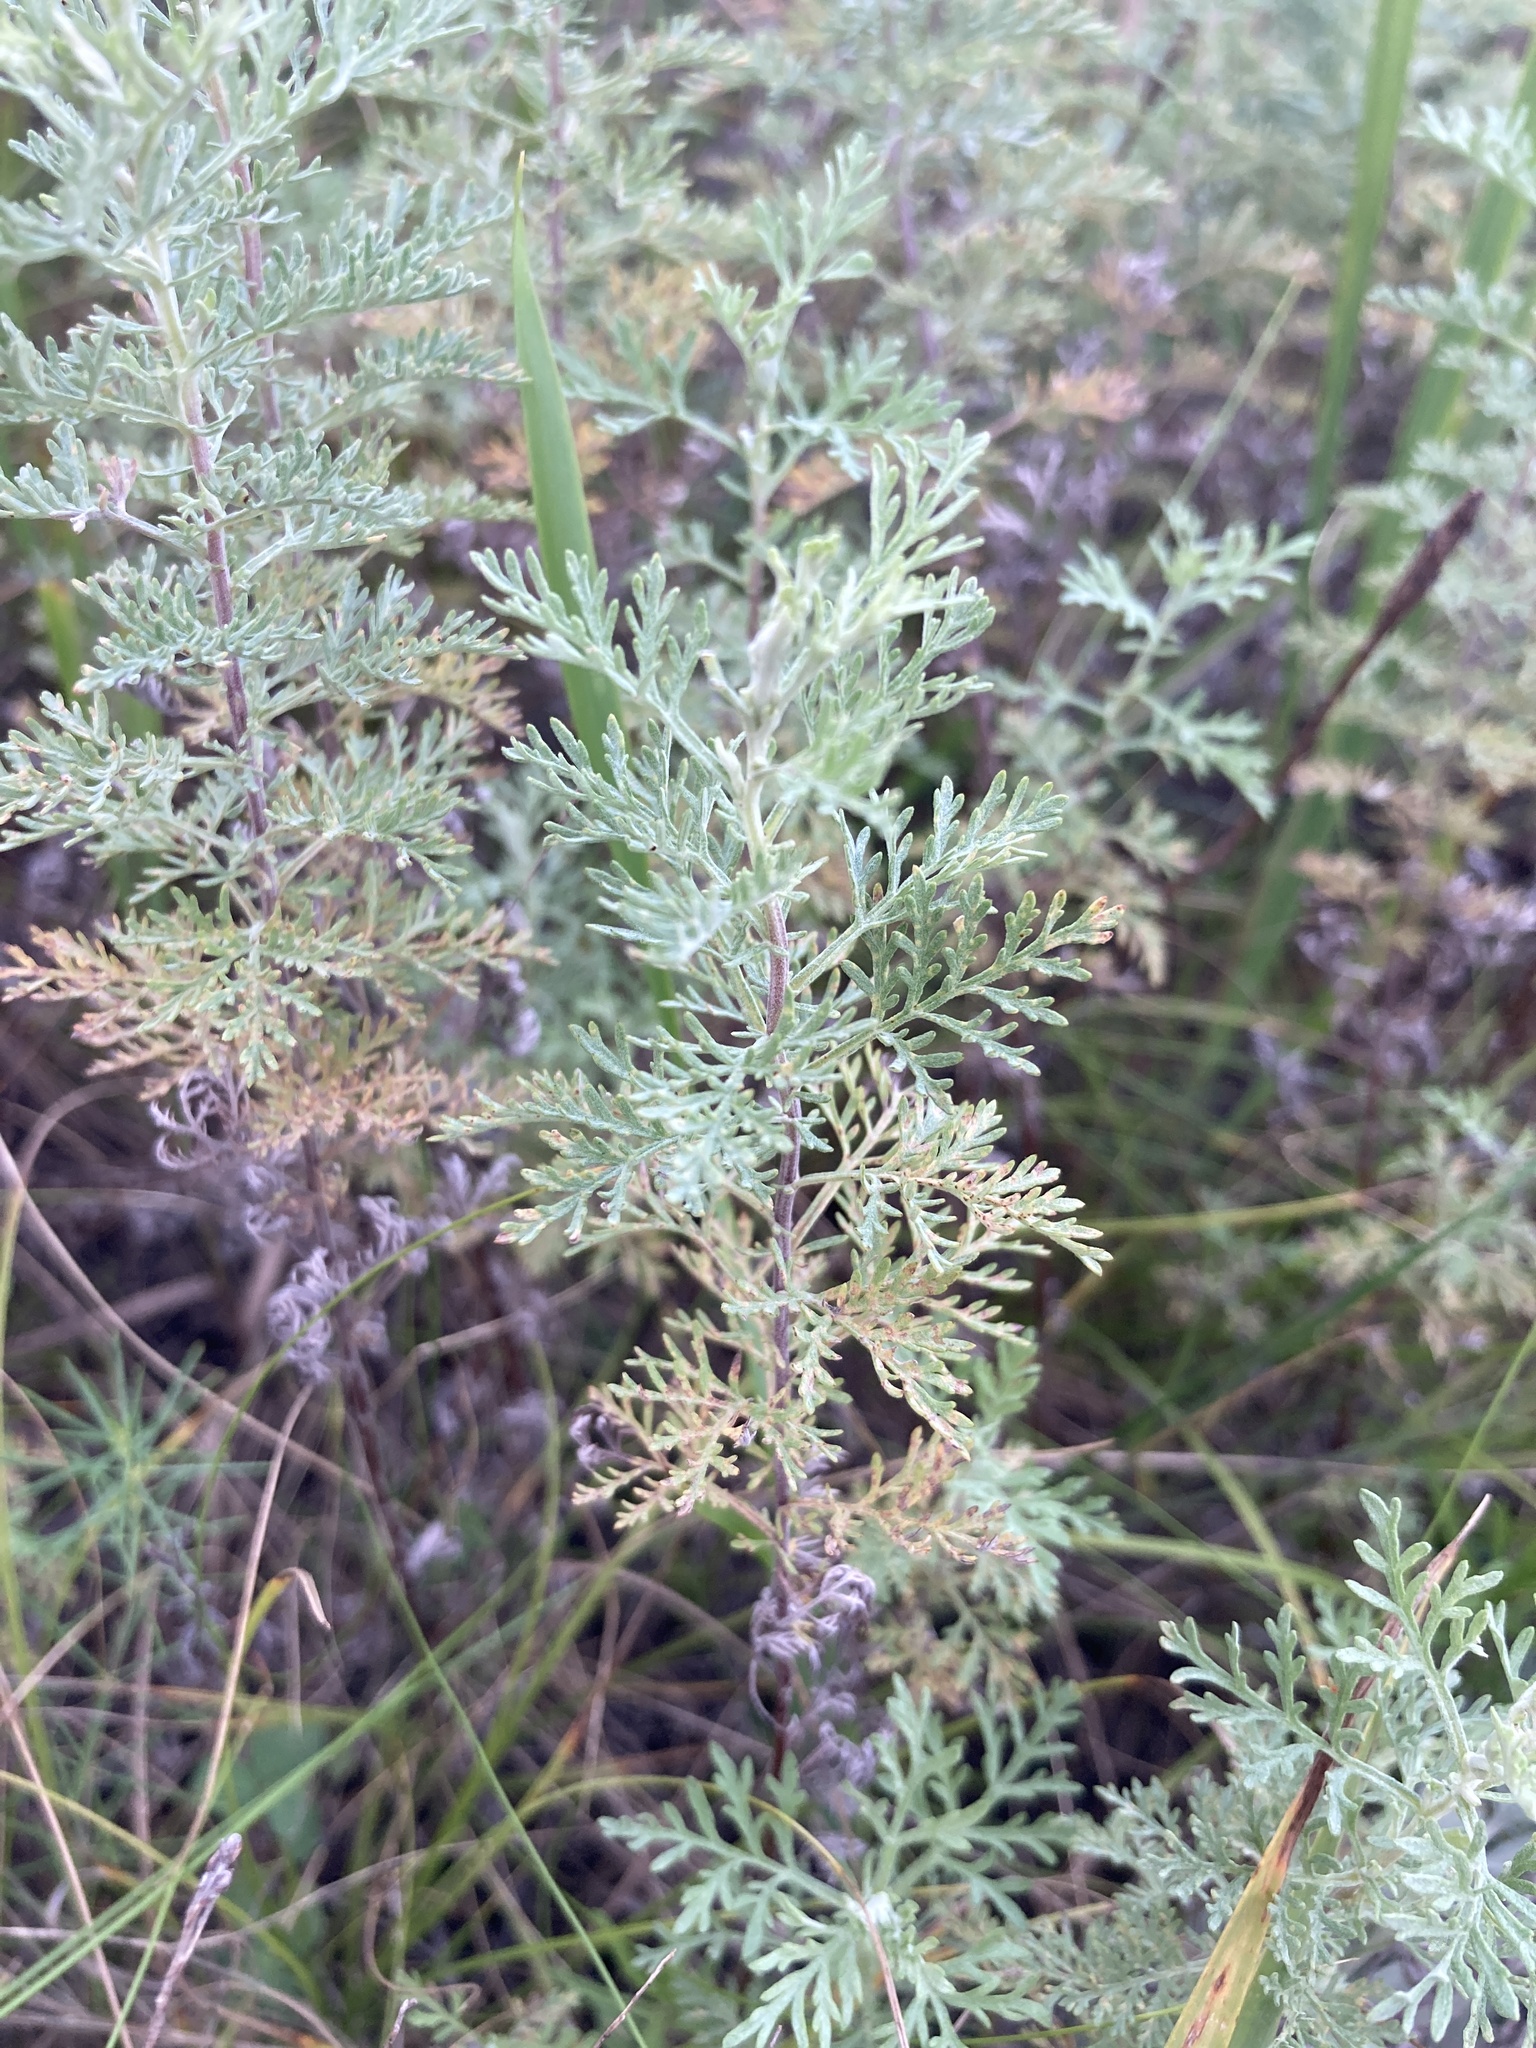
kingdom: Plantae
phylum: Tracheophyta
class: Magnoliopsida
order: Asterales
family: Asteraceae
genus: Artemisia
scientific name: Artemisia pontica
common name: Roman wormwood
